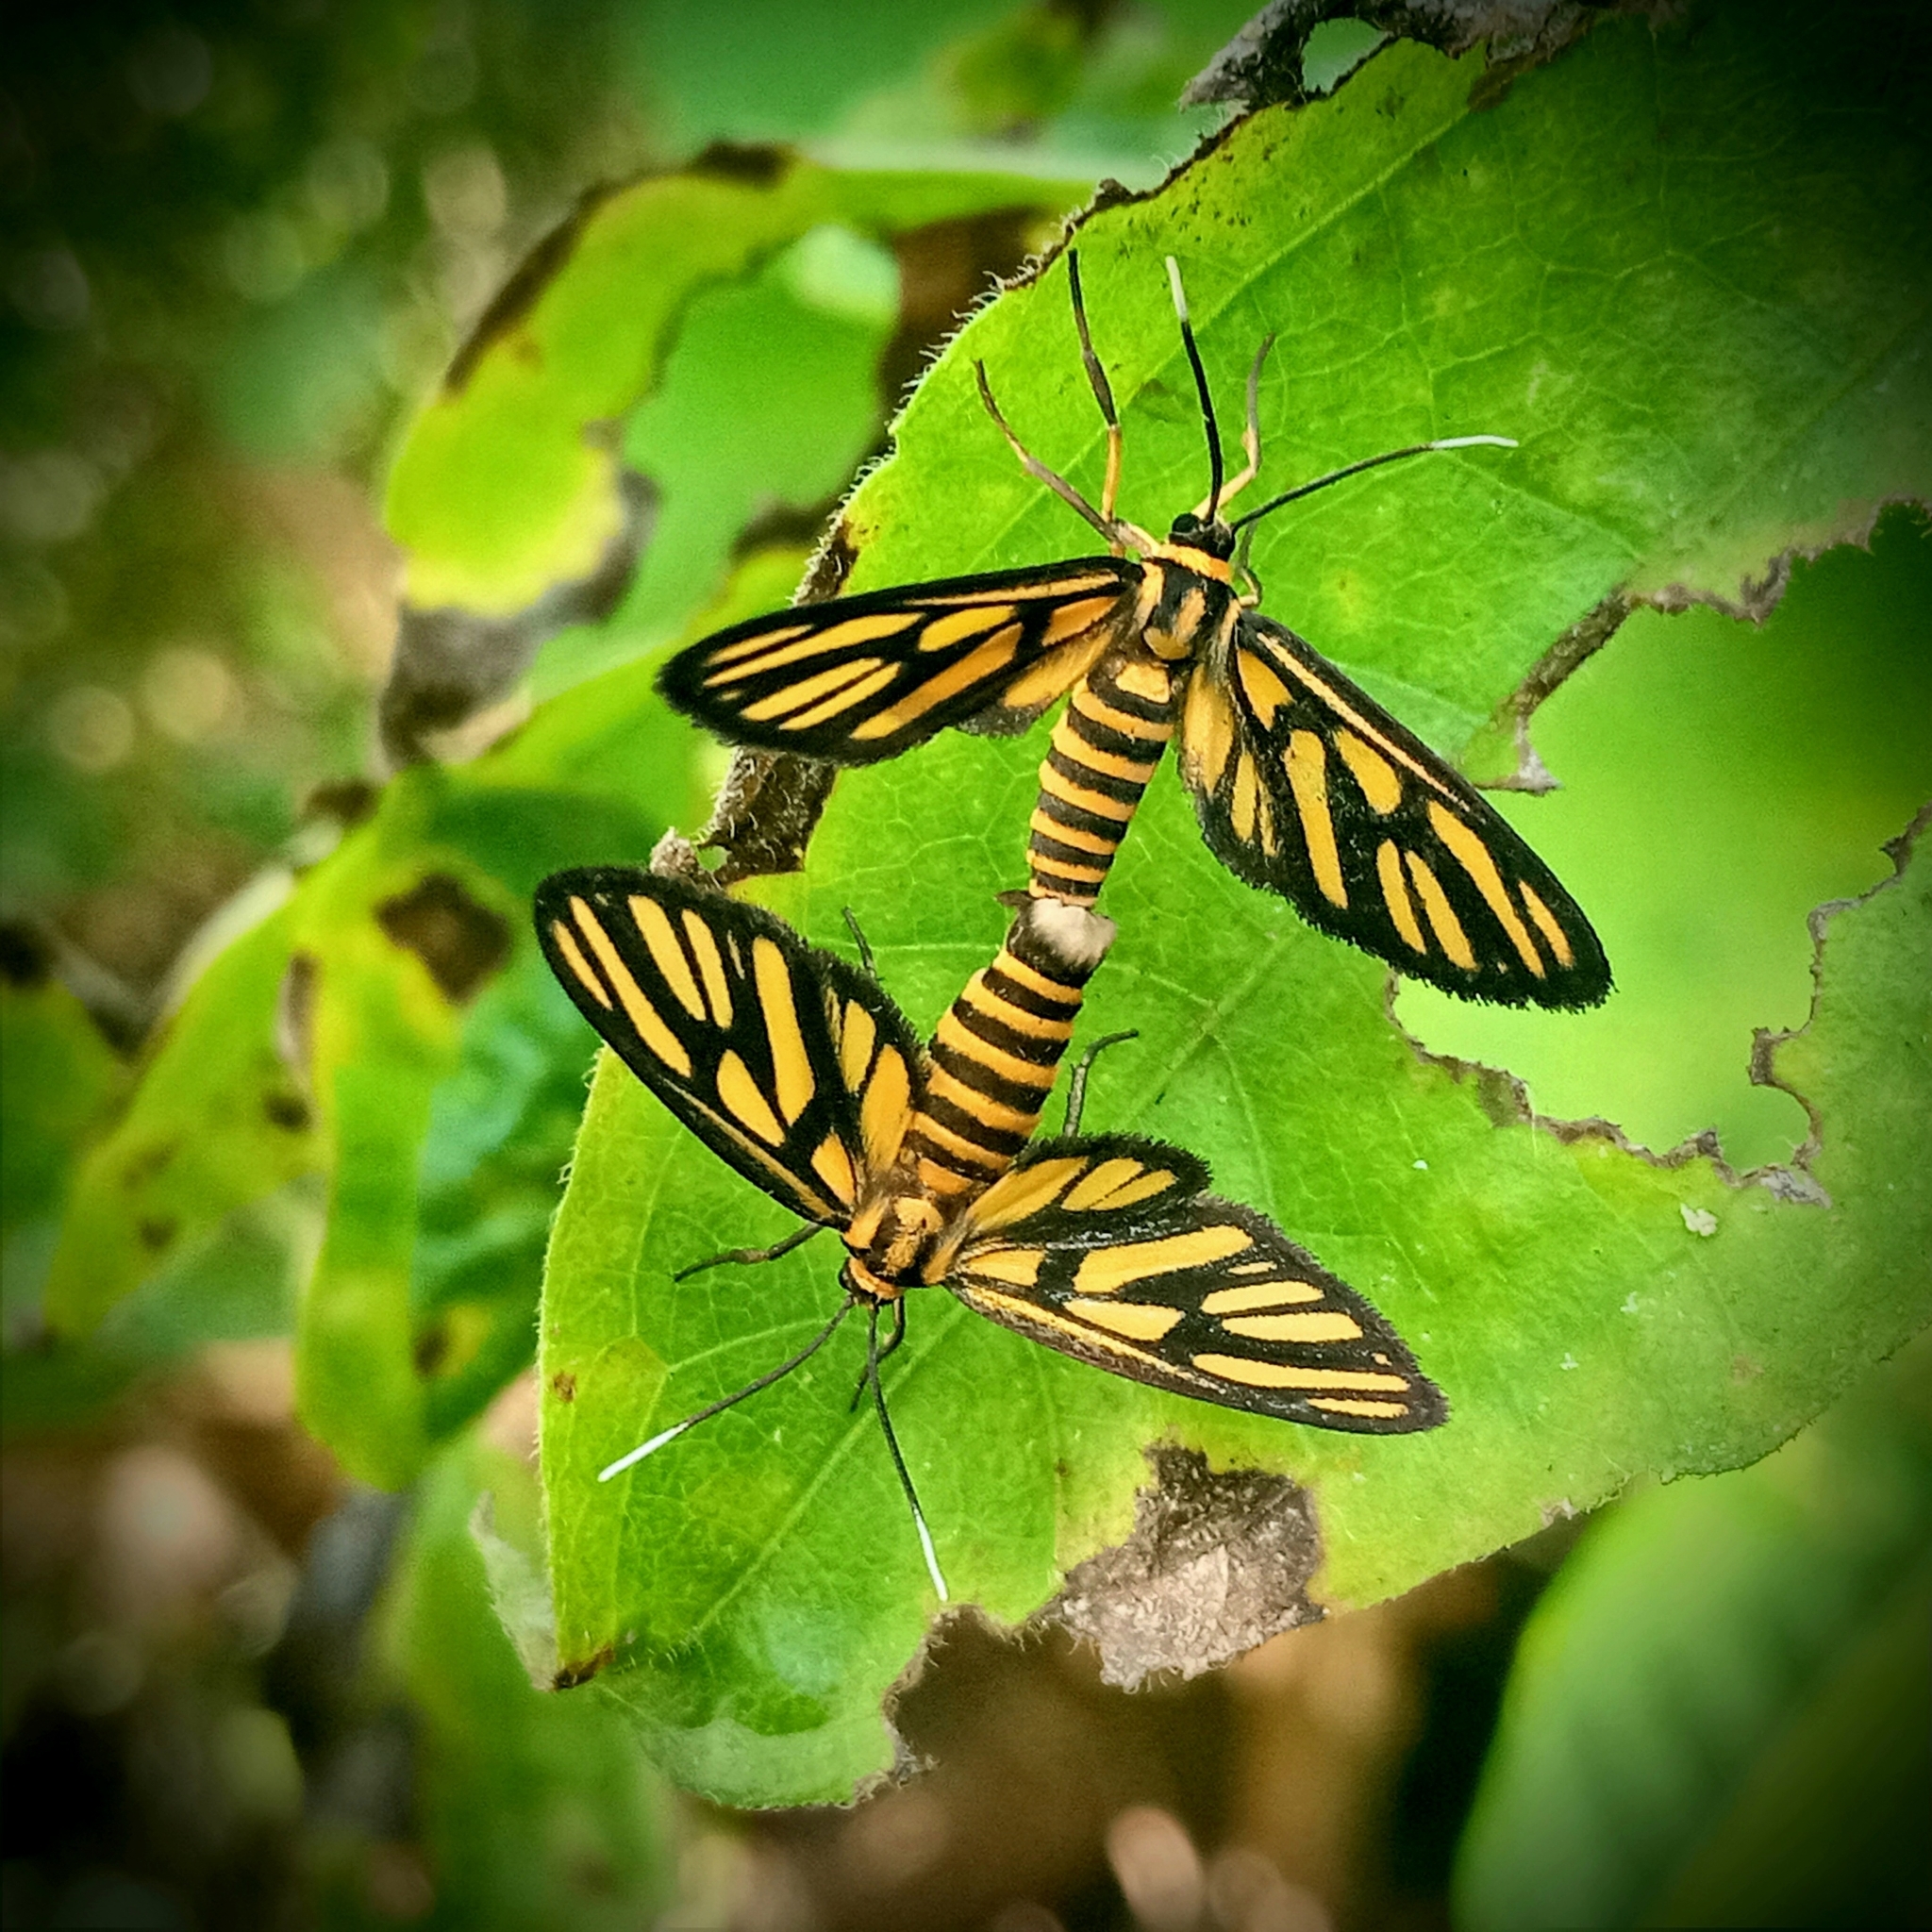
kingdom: Animalia
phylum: Arthropoda
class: Insecta
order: Lepidoptera
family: Erebidae
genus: Amata
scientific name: Amata hirayamae
